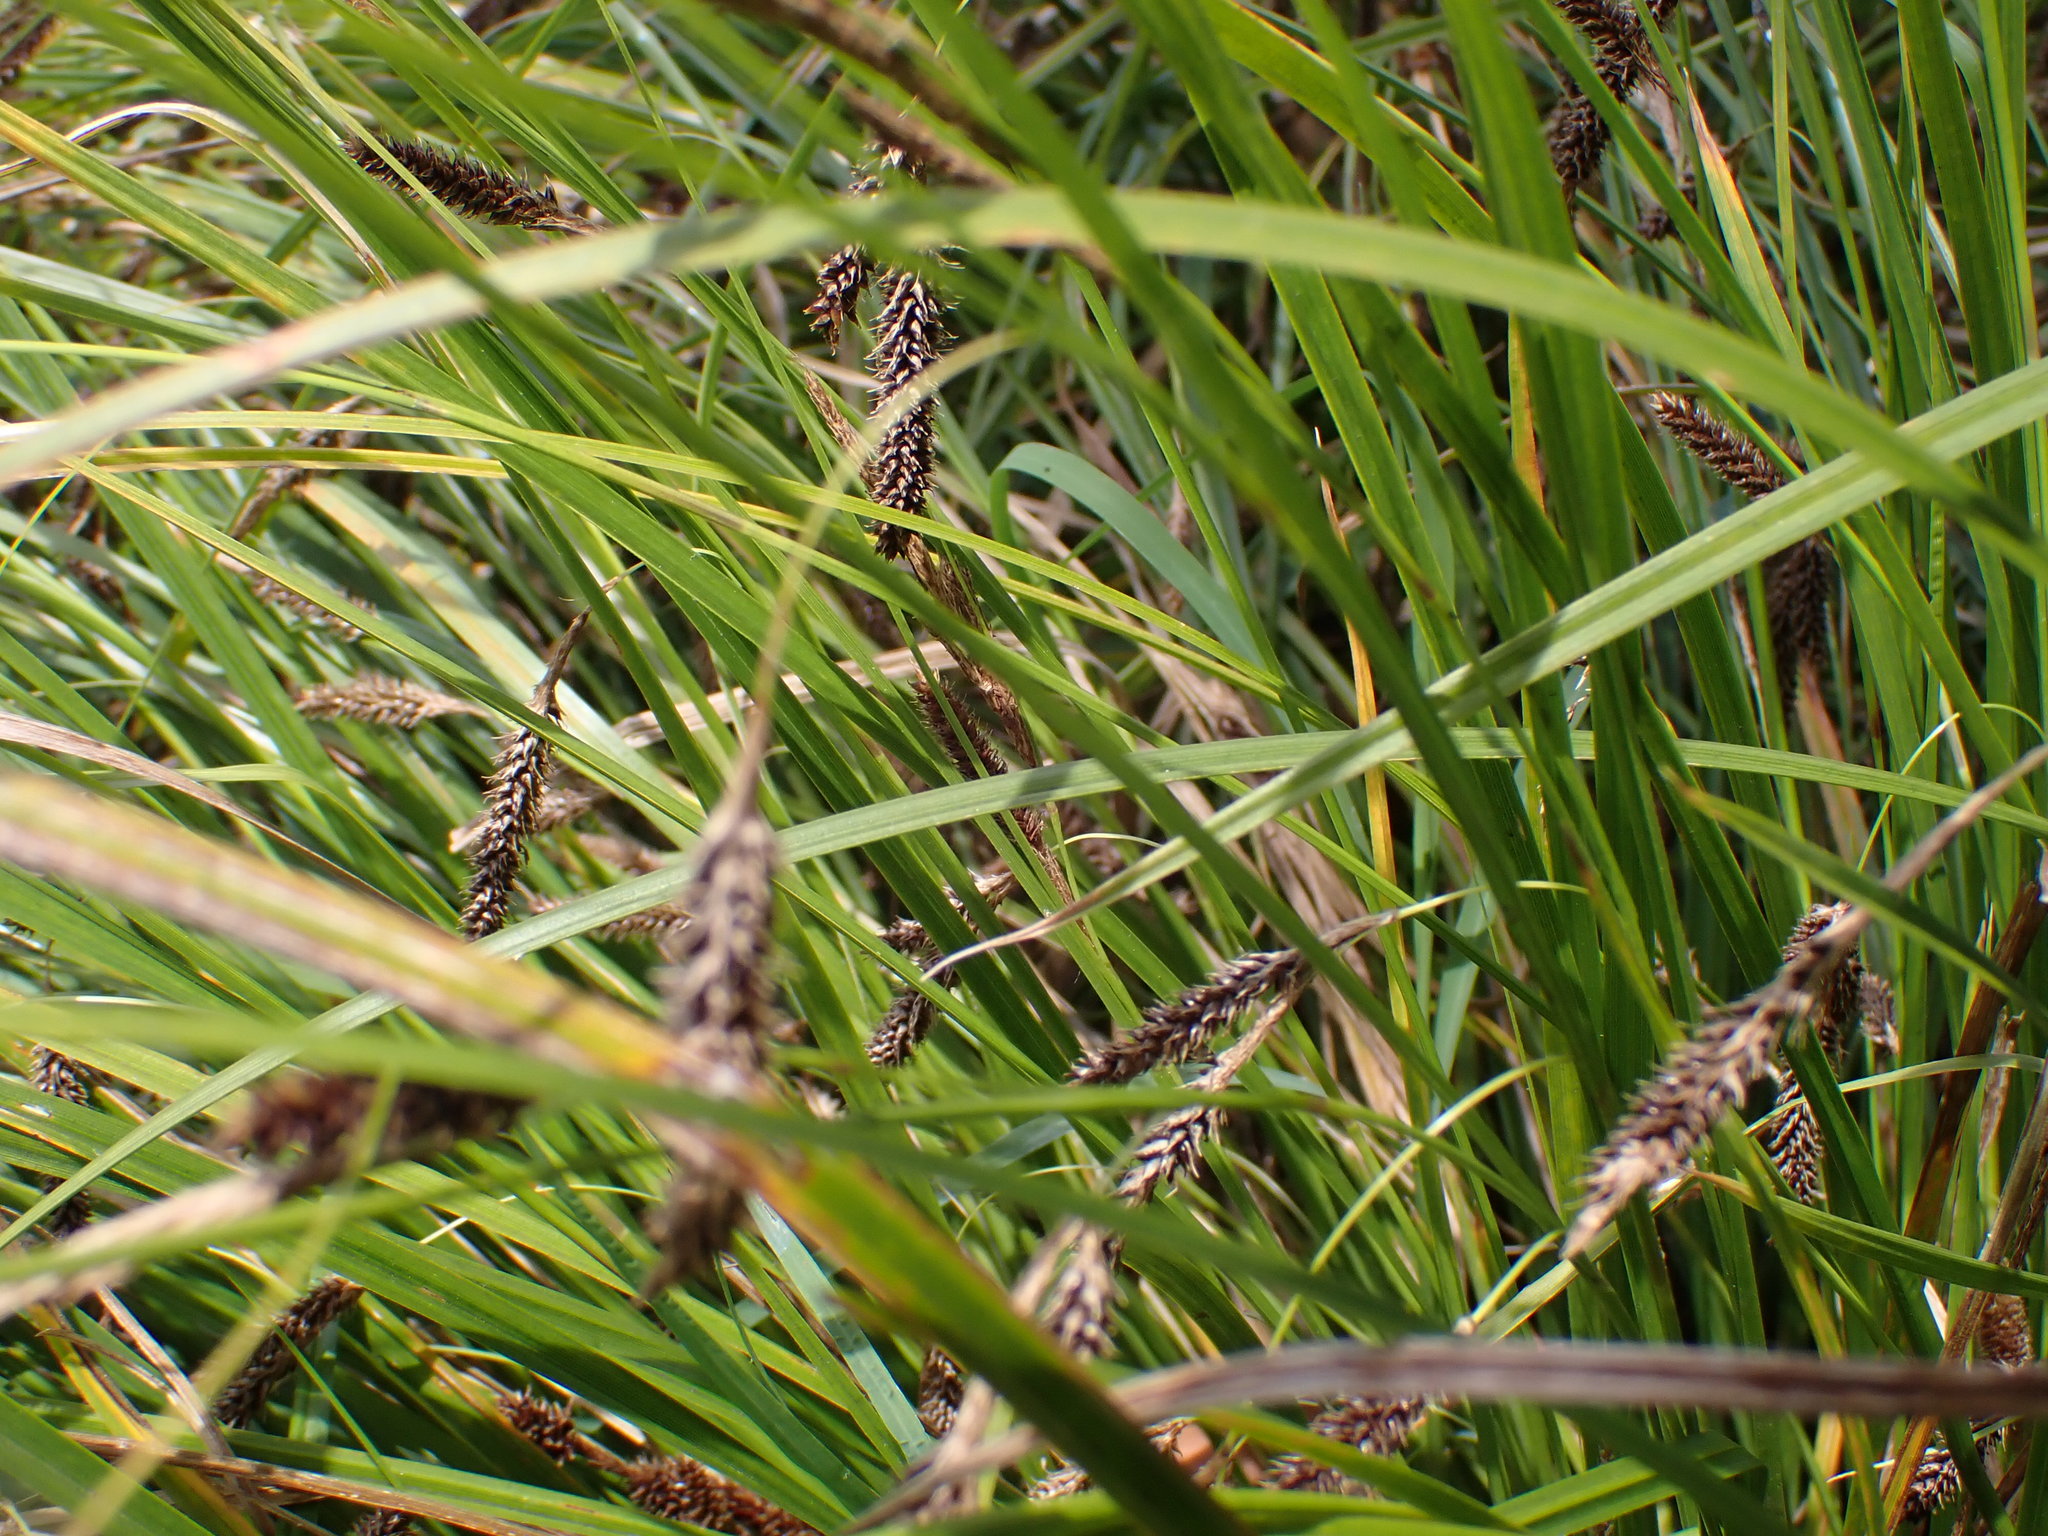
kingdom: Plantae
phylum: Tracheophyta
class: Liliopsida
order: Poales
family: Cyperaceae
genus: Carex
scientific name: Carex solandri
